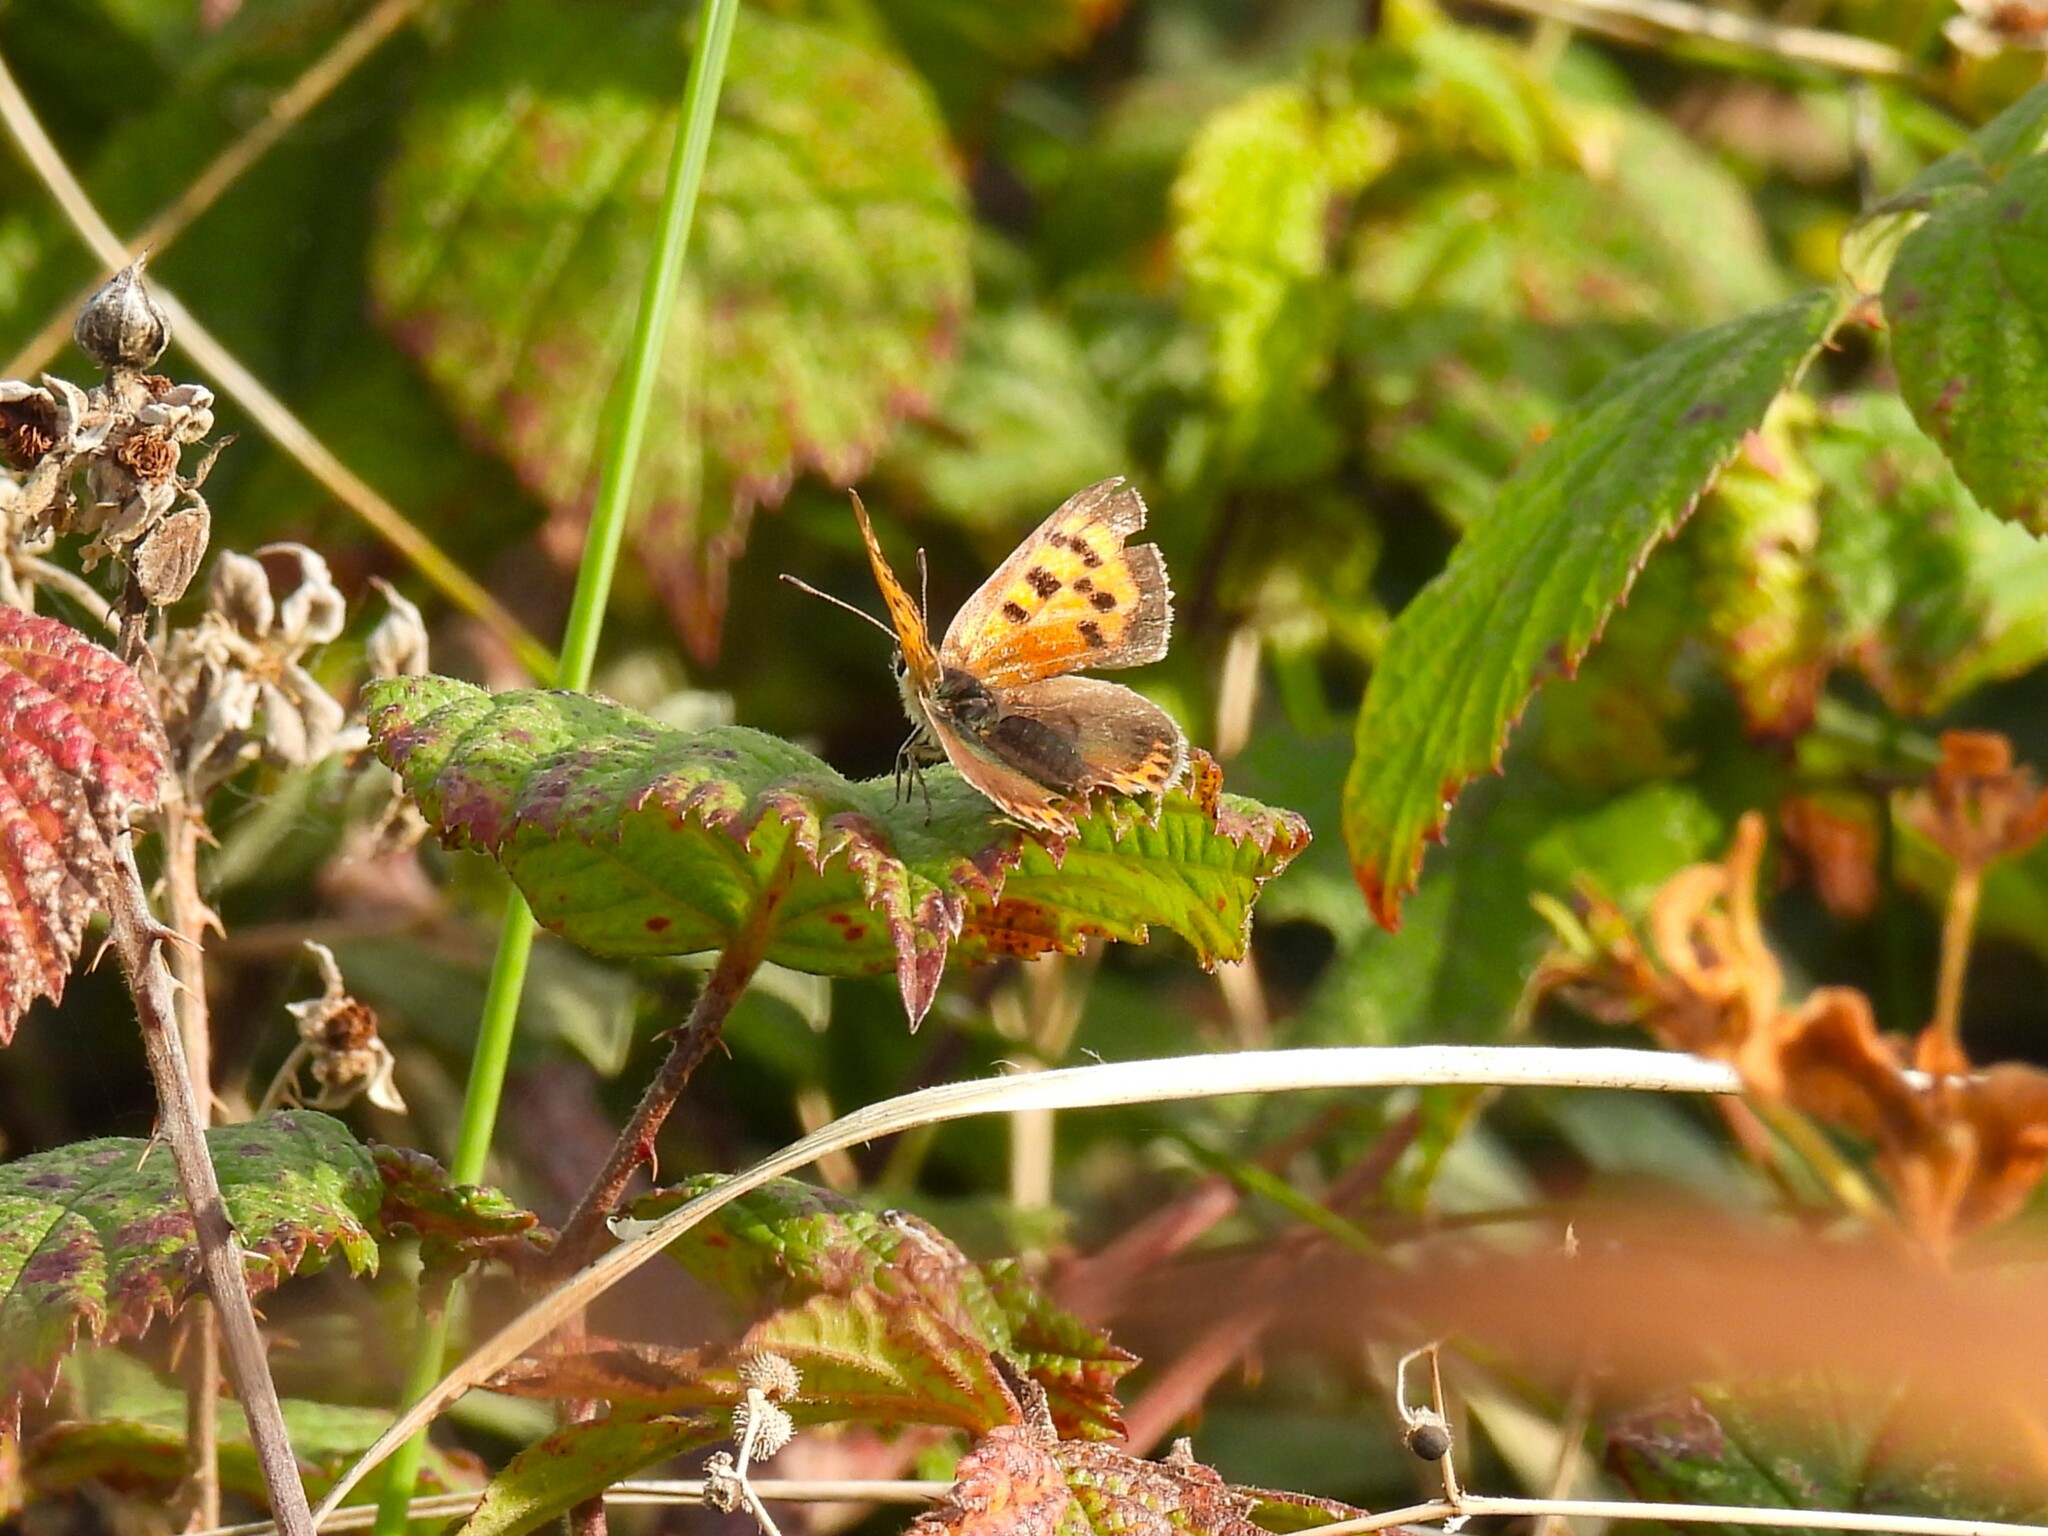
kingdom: Animalia
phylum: Arthropoda
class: Insecta
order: Lepidoptera
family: Lycaenidae
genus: Lycaena
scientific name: Lycaena phlaeas
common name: Small copper
